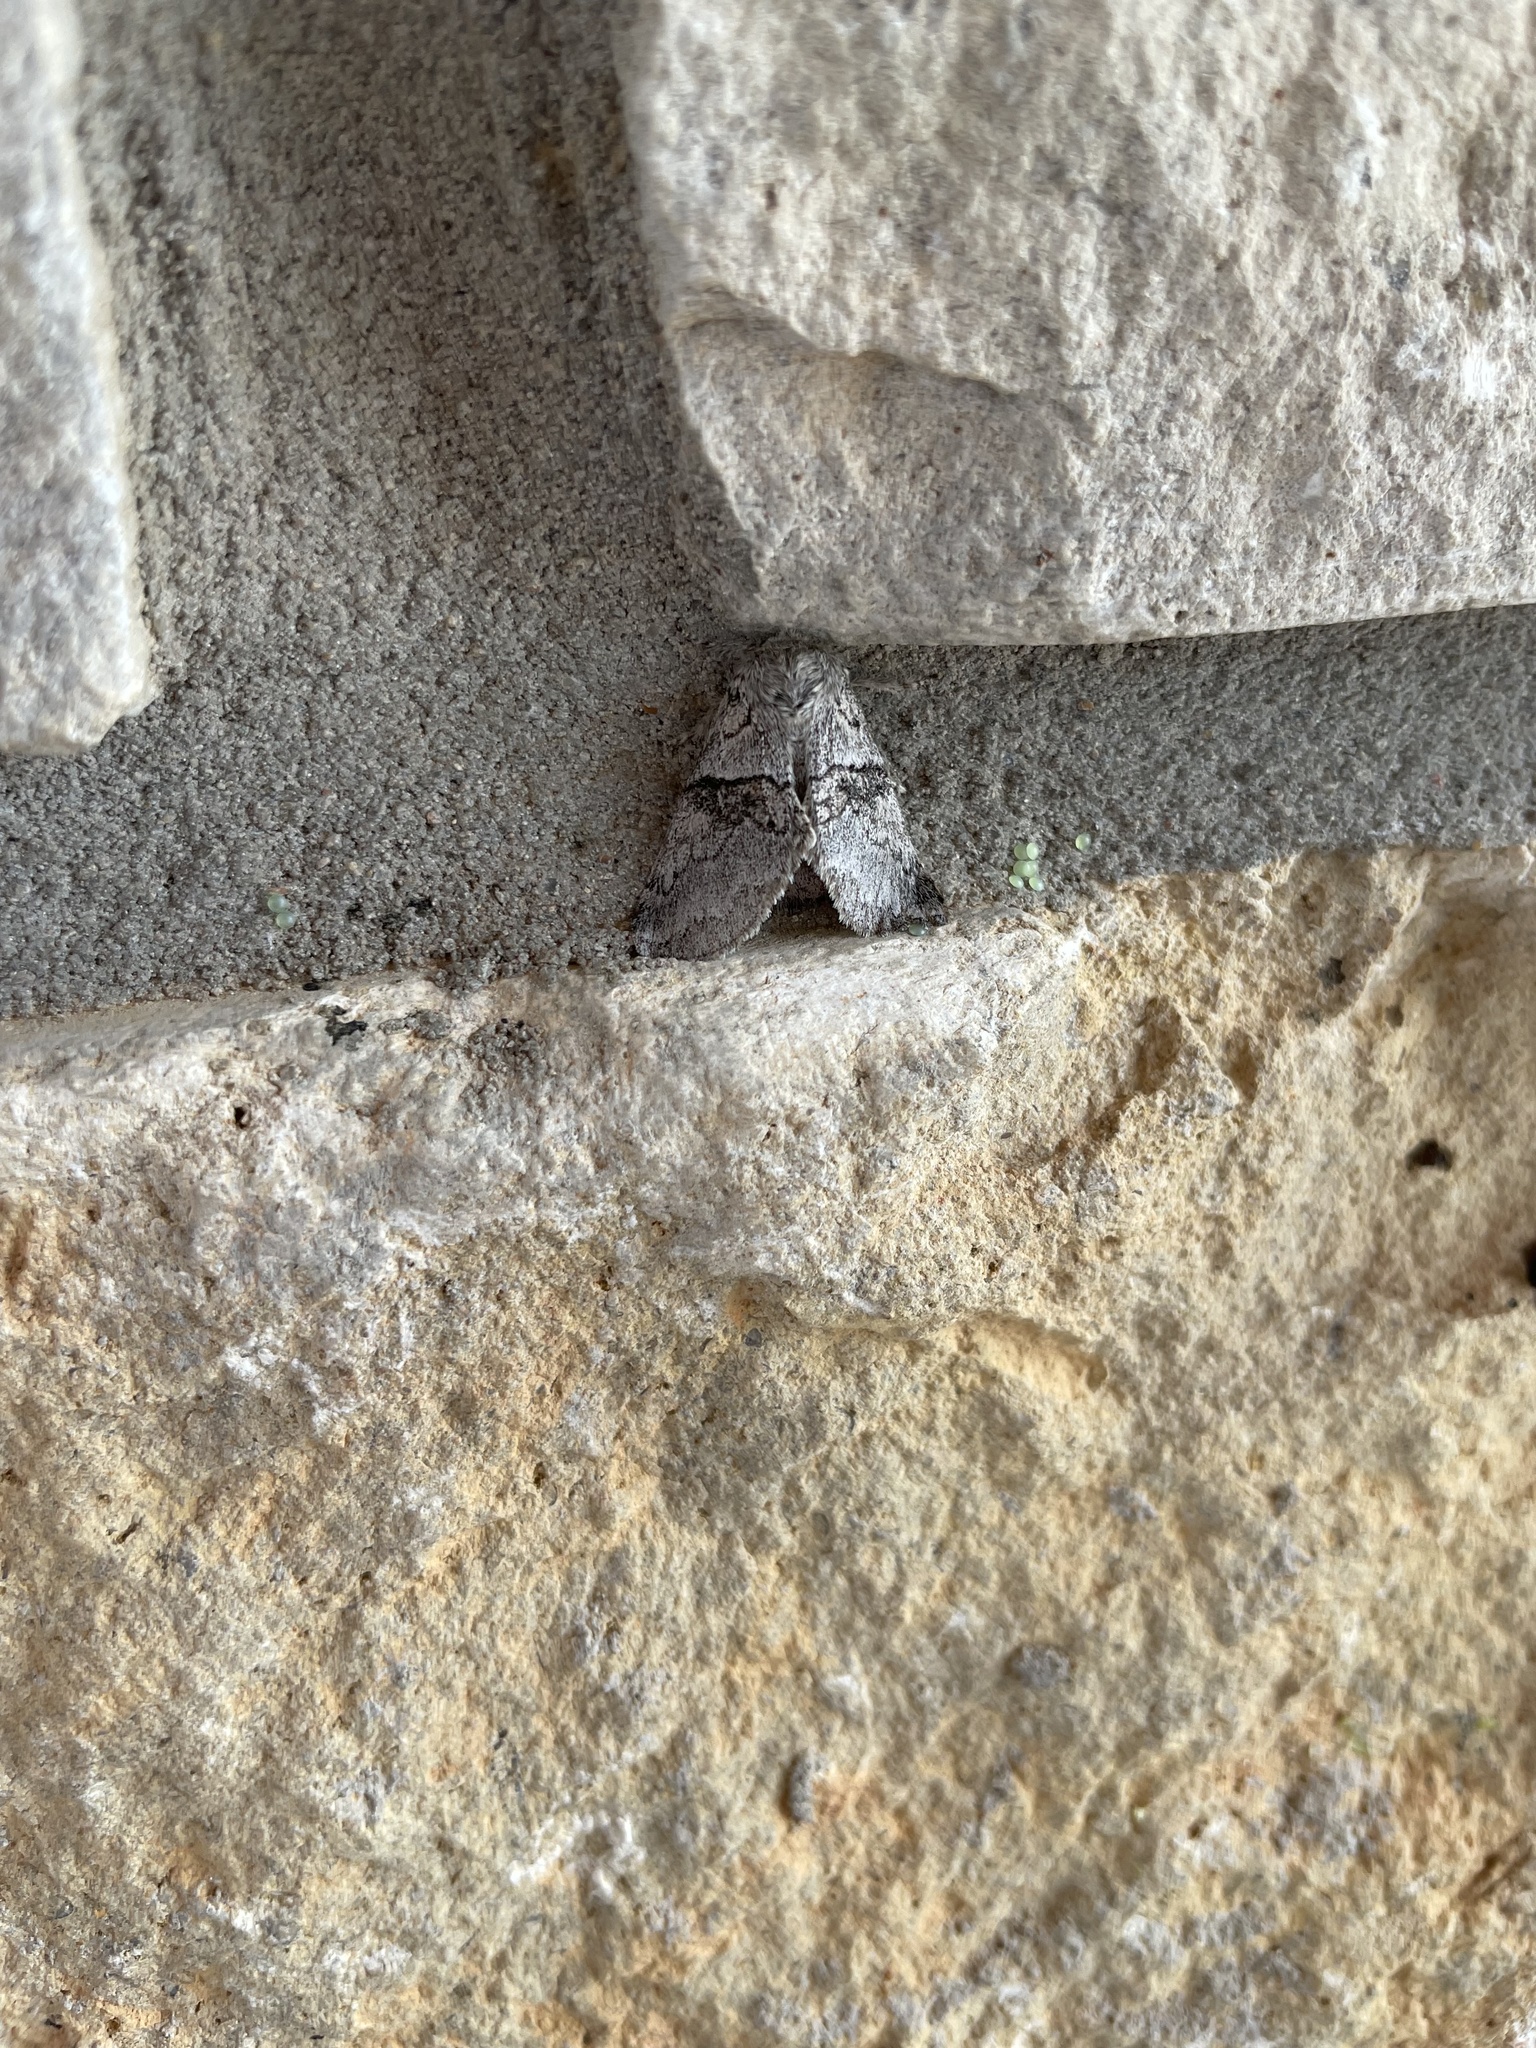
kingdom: Animalia
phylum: Arthropoda
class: Insecta
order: Lepidoptera
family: Notodontidae
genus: Gluphisia
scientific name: Gluphisia septentrionis
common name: Common gluphisia
